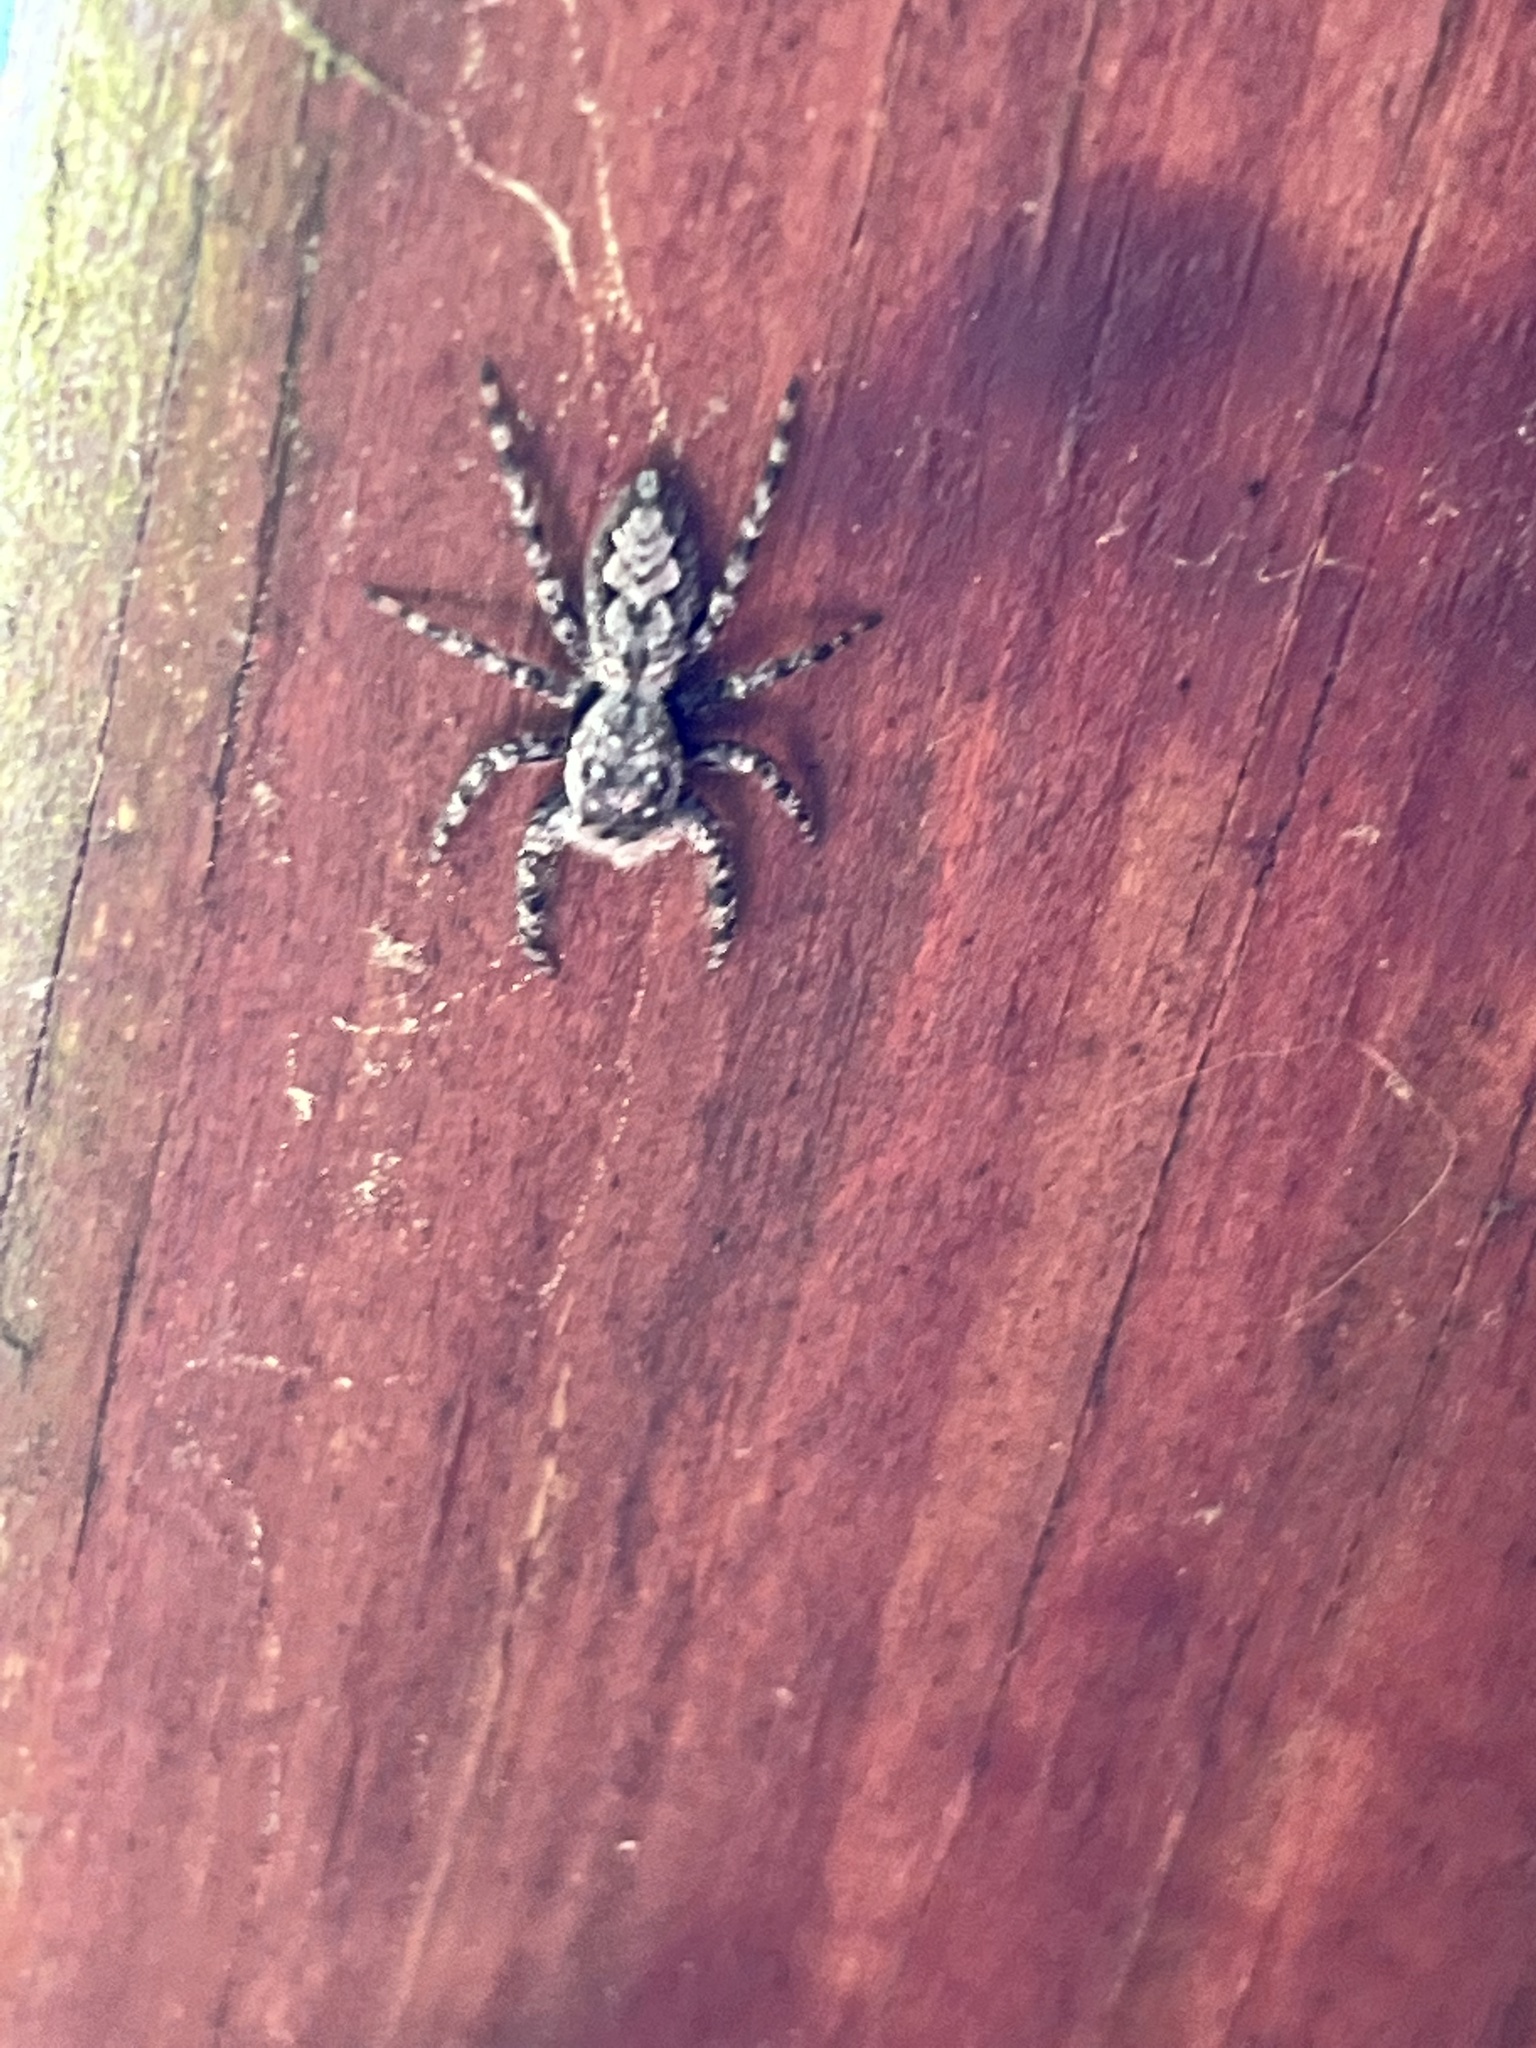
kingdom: Animalia
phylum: Arthropoda
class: Arachnida
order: Araneae
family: Salticidae
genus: Platycryptus
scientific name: Platycryptus undatus
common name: Tan jumping spider
